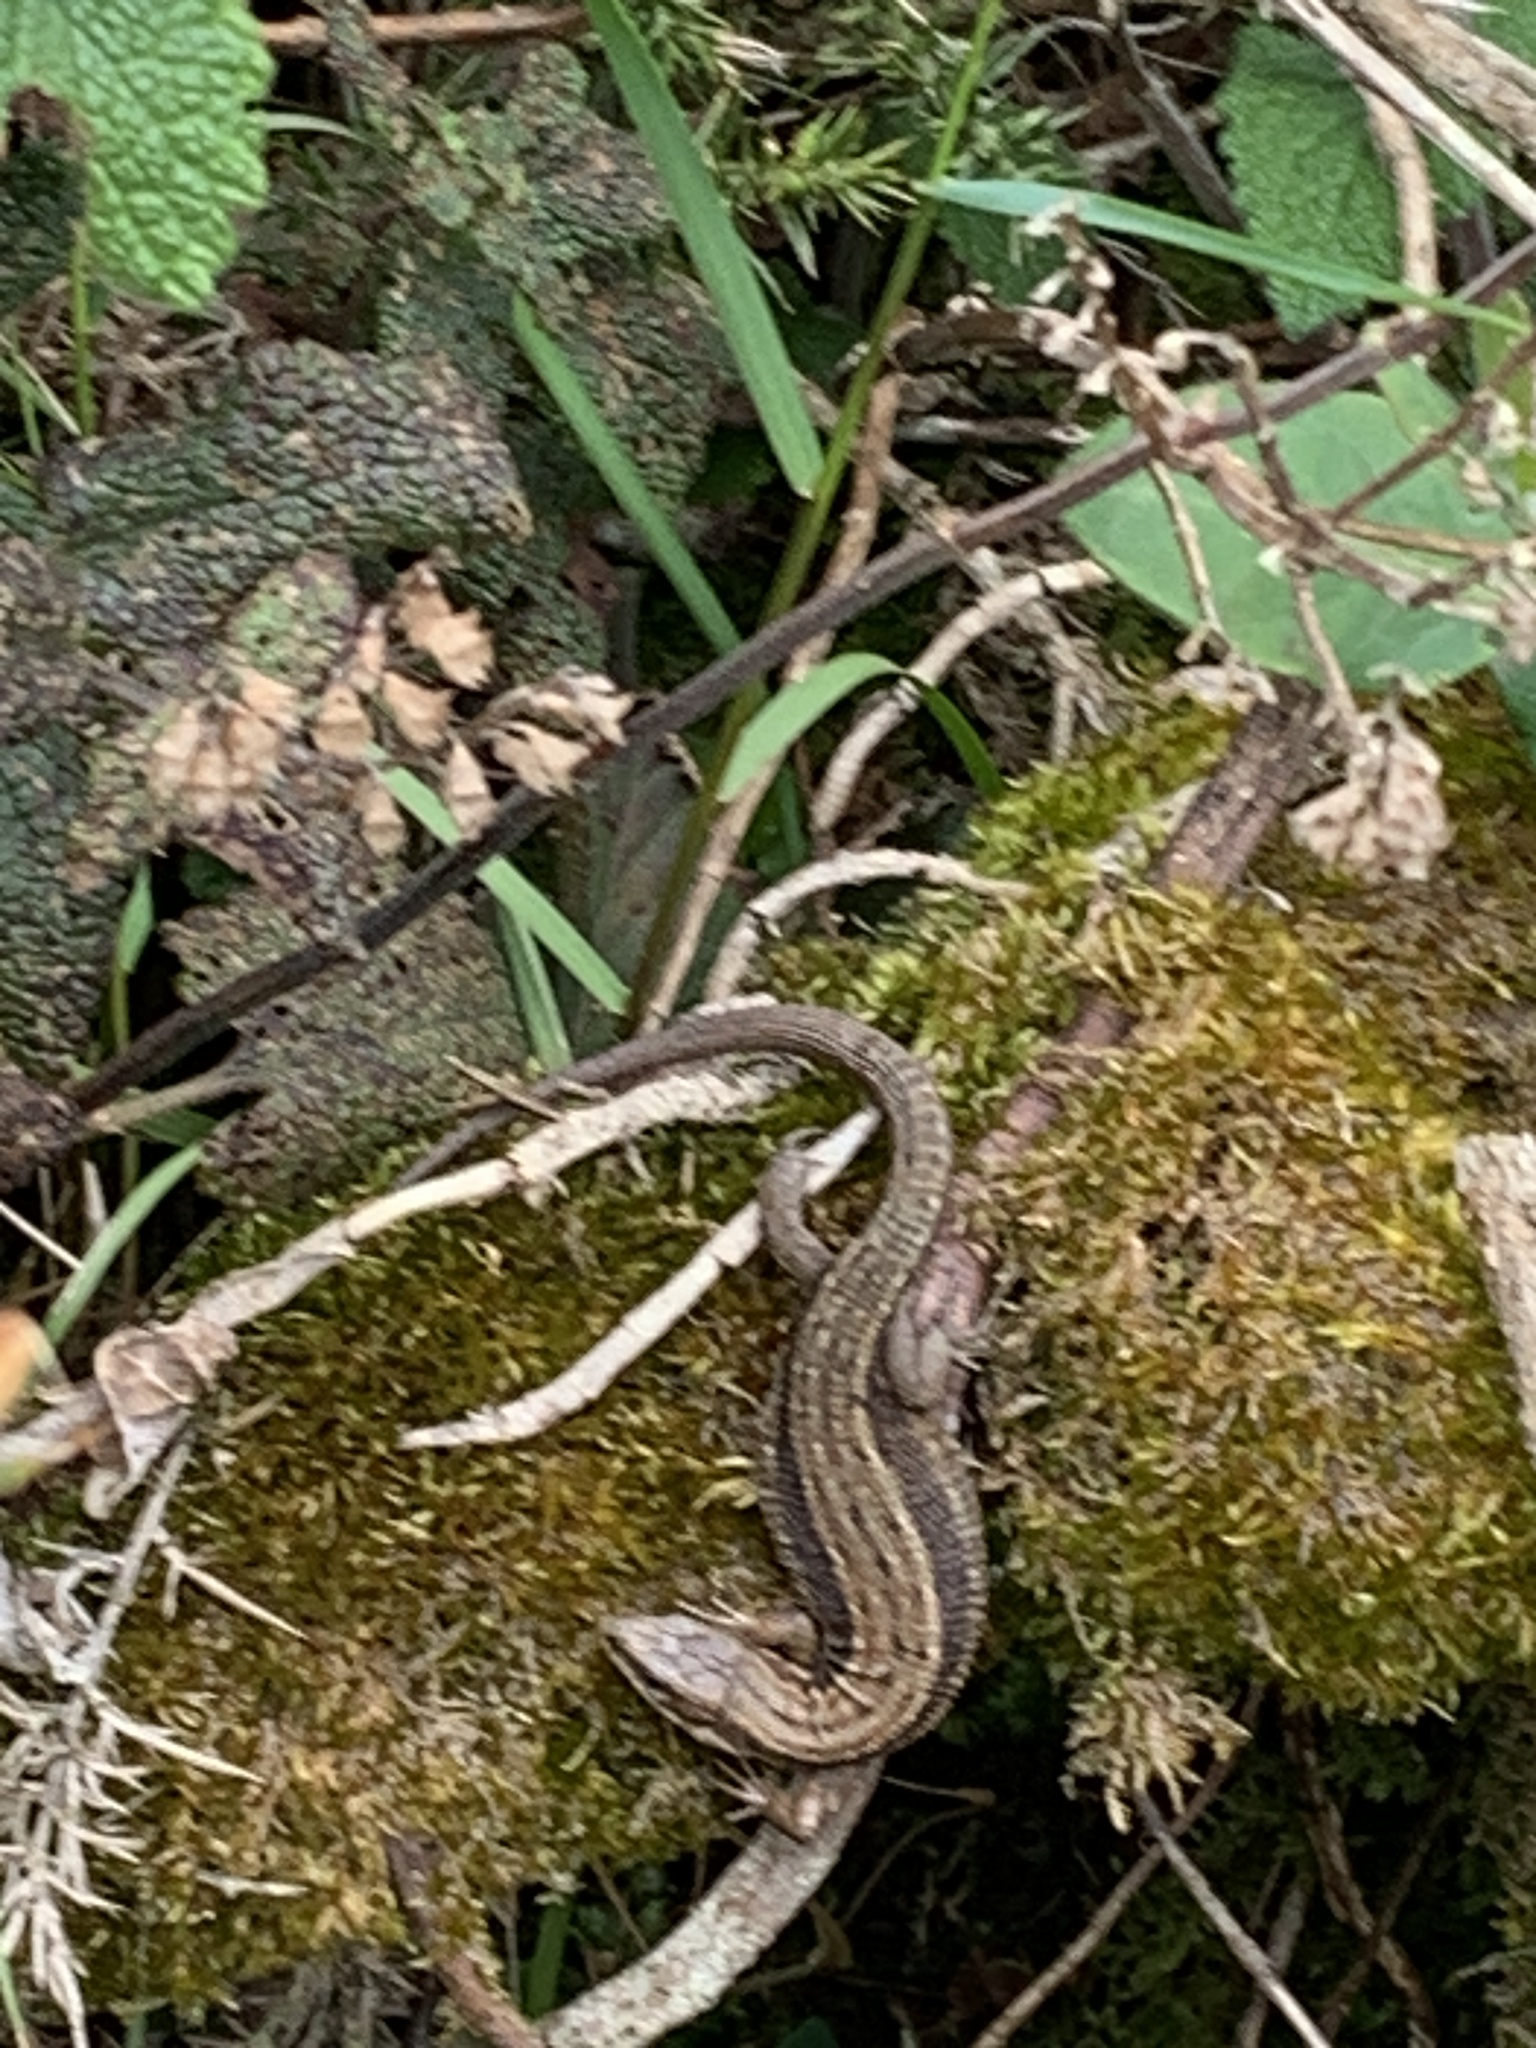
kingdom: Animalia
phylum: Chordata
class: Squamata
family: Lacertidae
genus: Zootoca
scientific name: Zootoca vivipara
